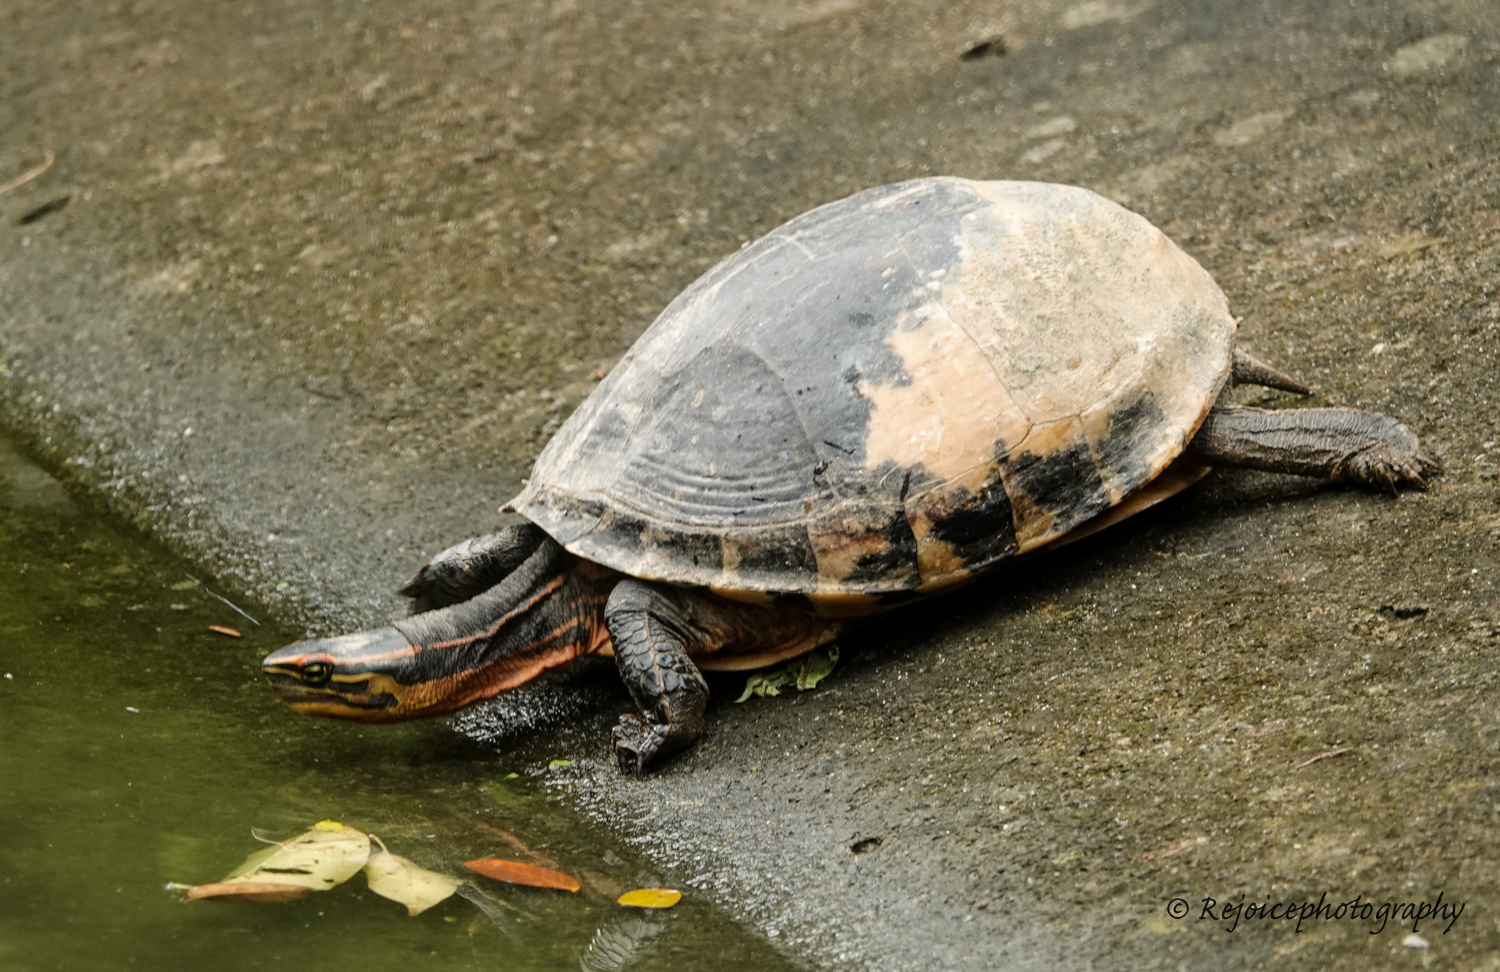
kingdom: Animalia
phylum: Chordata
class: Testudines
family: Geoemydidae
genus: Cuora
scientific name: Cuora amboinensis
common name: Southeast asian box turtle
